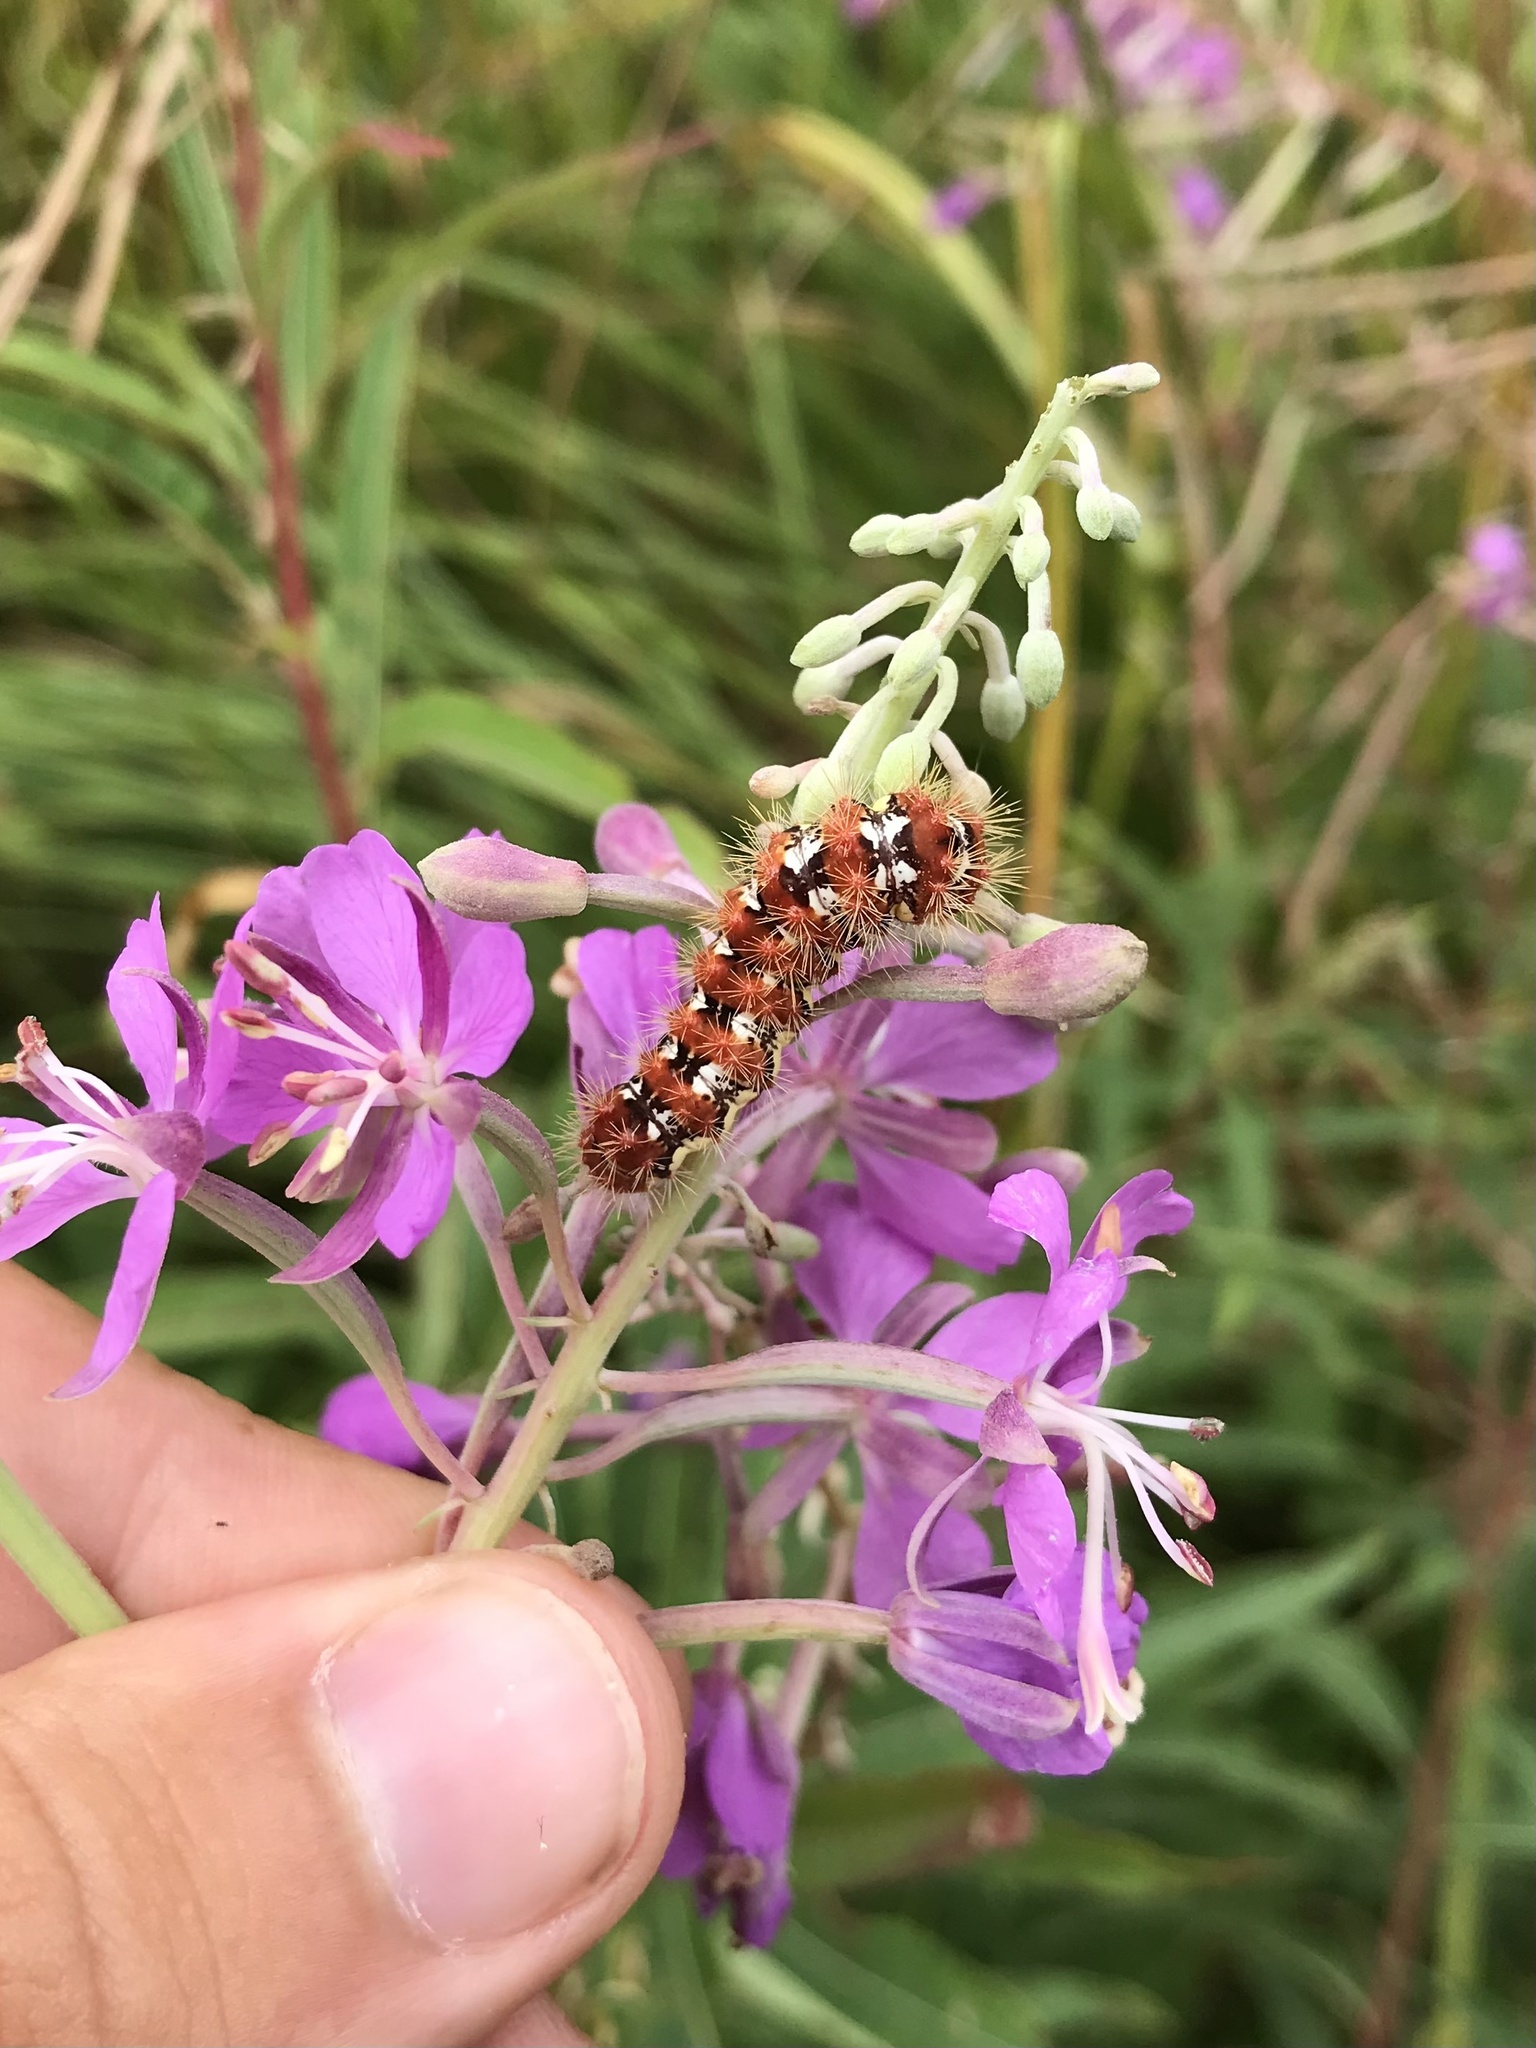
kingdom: Animalia
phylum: Arthropoda
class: Insecta
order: Lepidoptera
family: Noctuidae
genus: Acronicta
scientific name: Acronicta oblinita
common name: Smeared dagger
